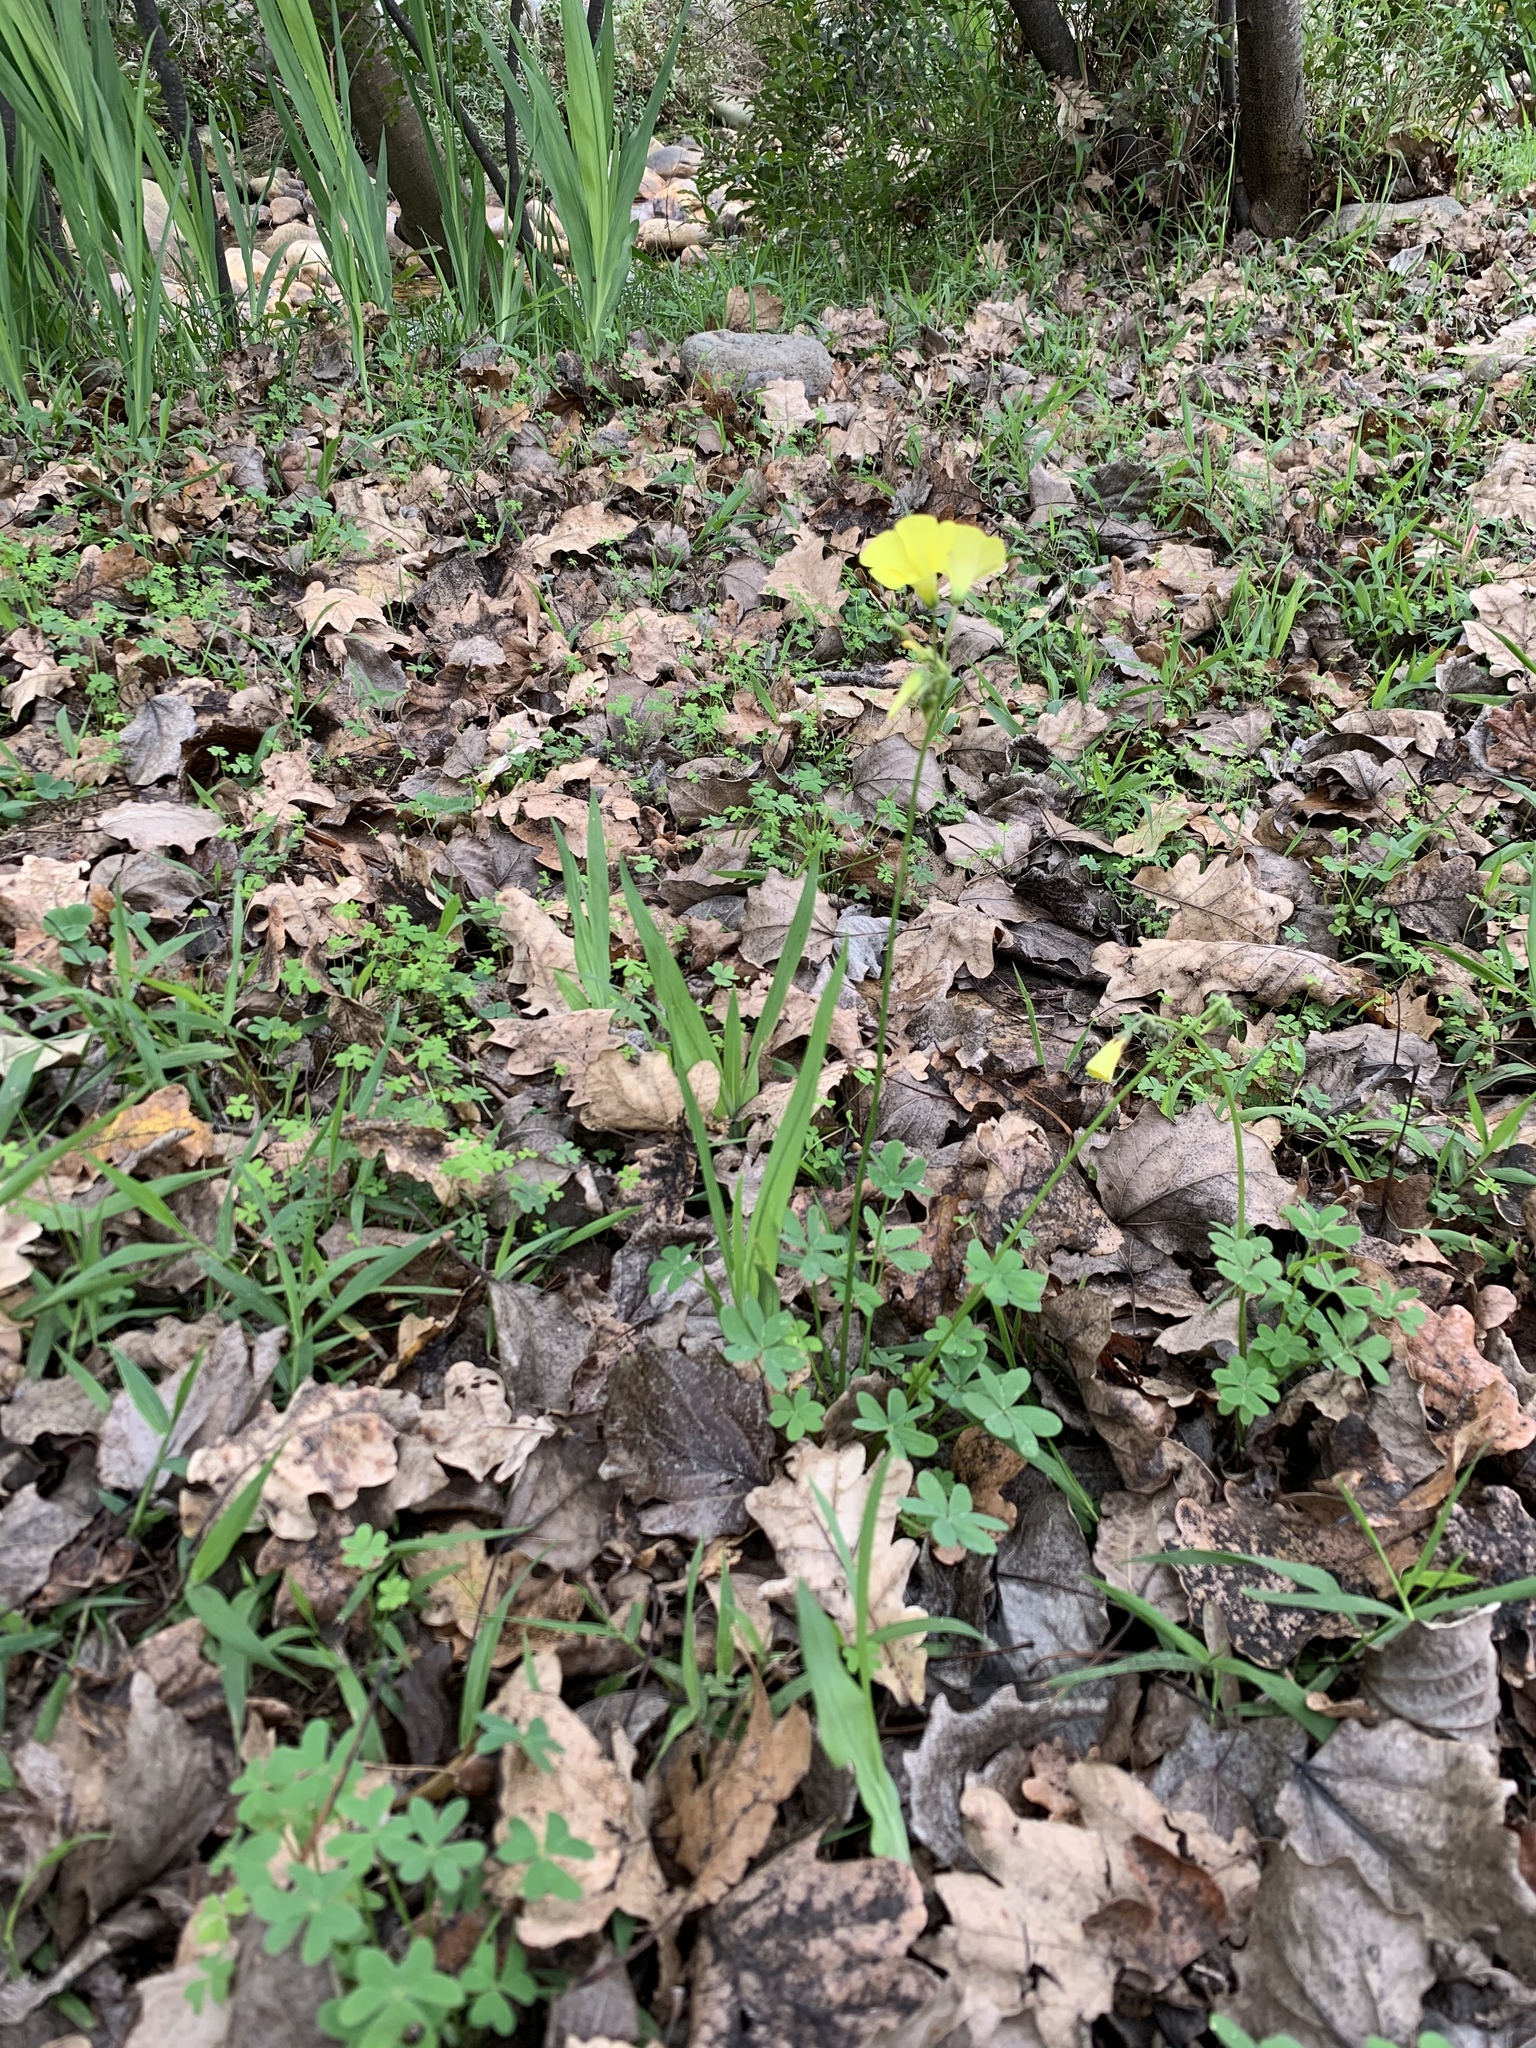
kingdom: Plantae
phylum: Tracheophyta
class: Magnoliopsida
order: Oxalidales
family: Oxalidaceae
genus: Oxalis
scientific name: Oxalis pes-caprae
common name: Bermuda-buttercup
